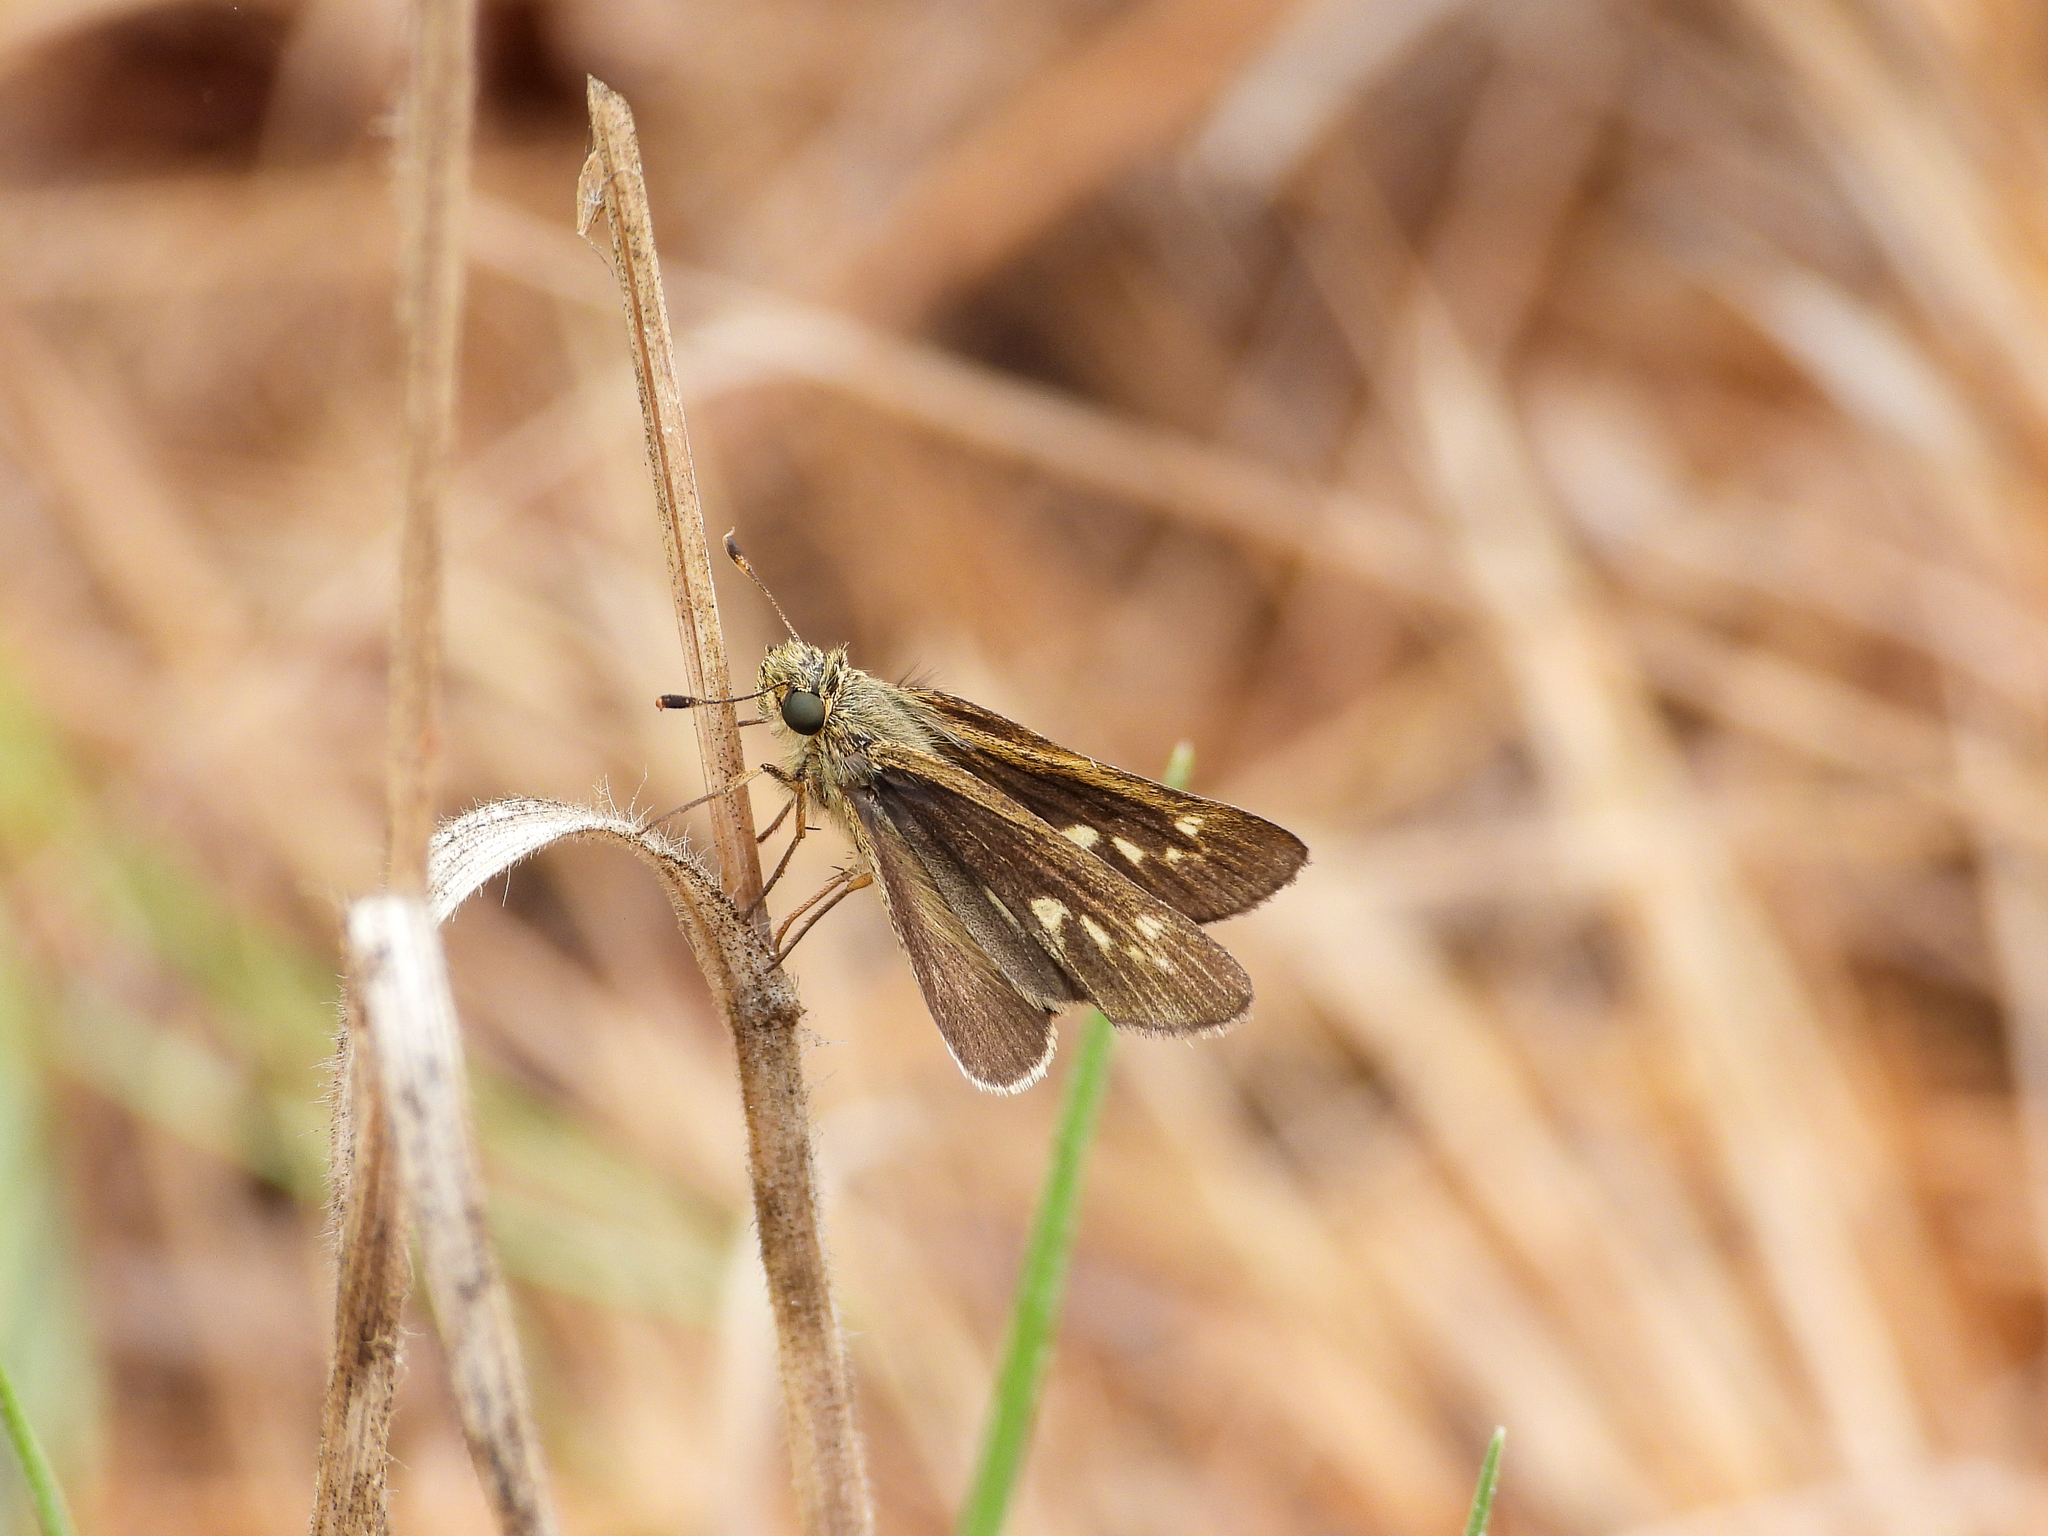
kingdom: Animalia
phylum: Arthropoda
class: Insecta
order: Lepidoptera
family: Hesperiidae
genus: Panoquina
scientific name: Panoquina errans
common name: Wandering skipper
